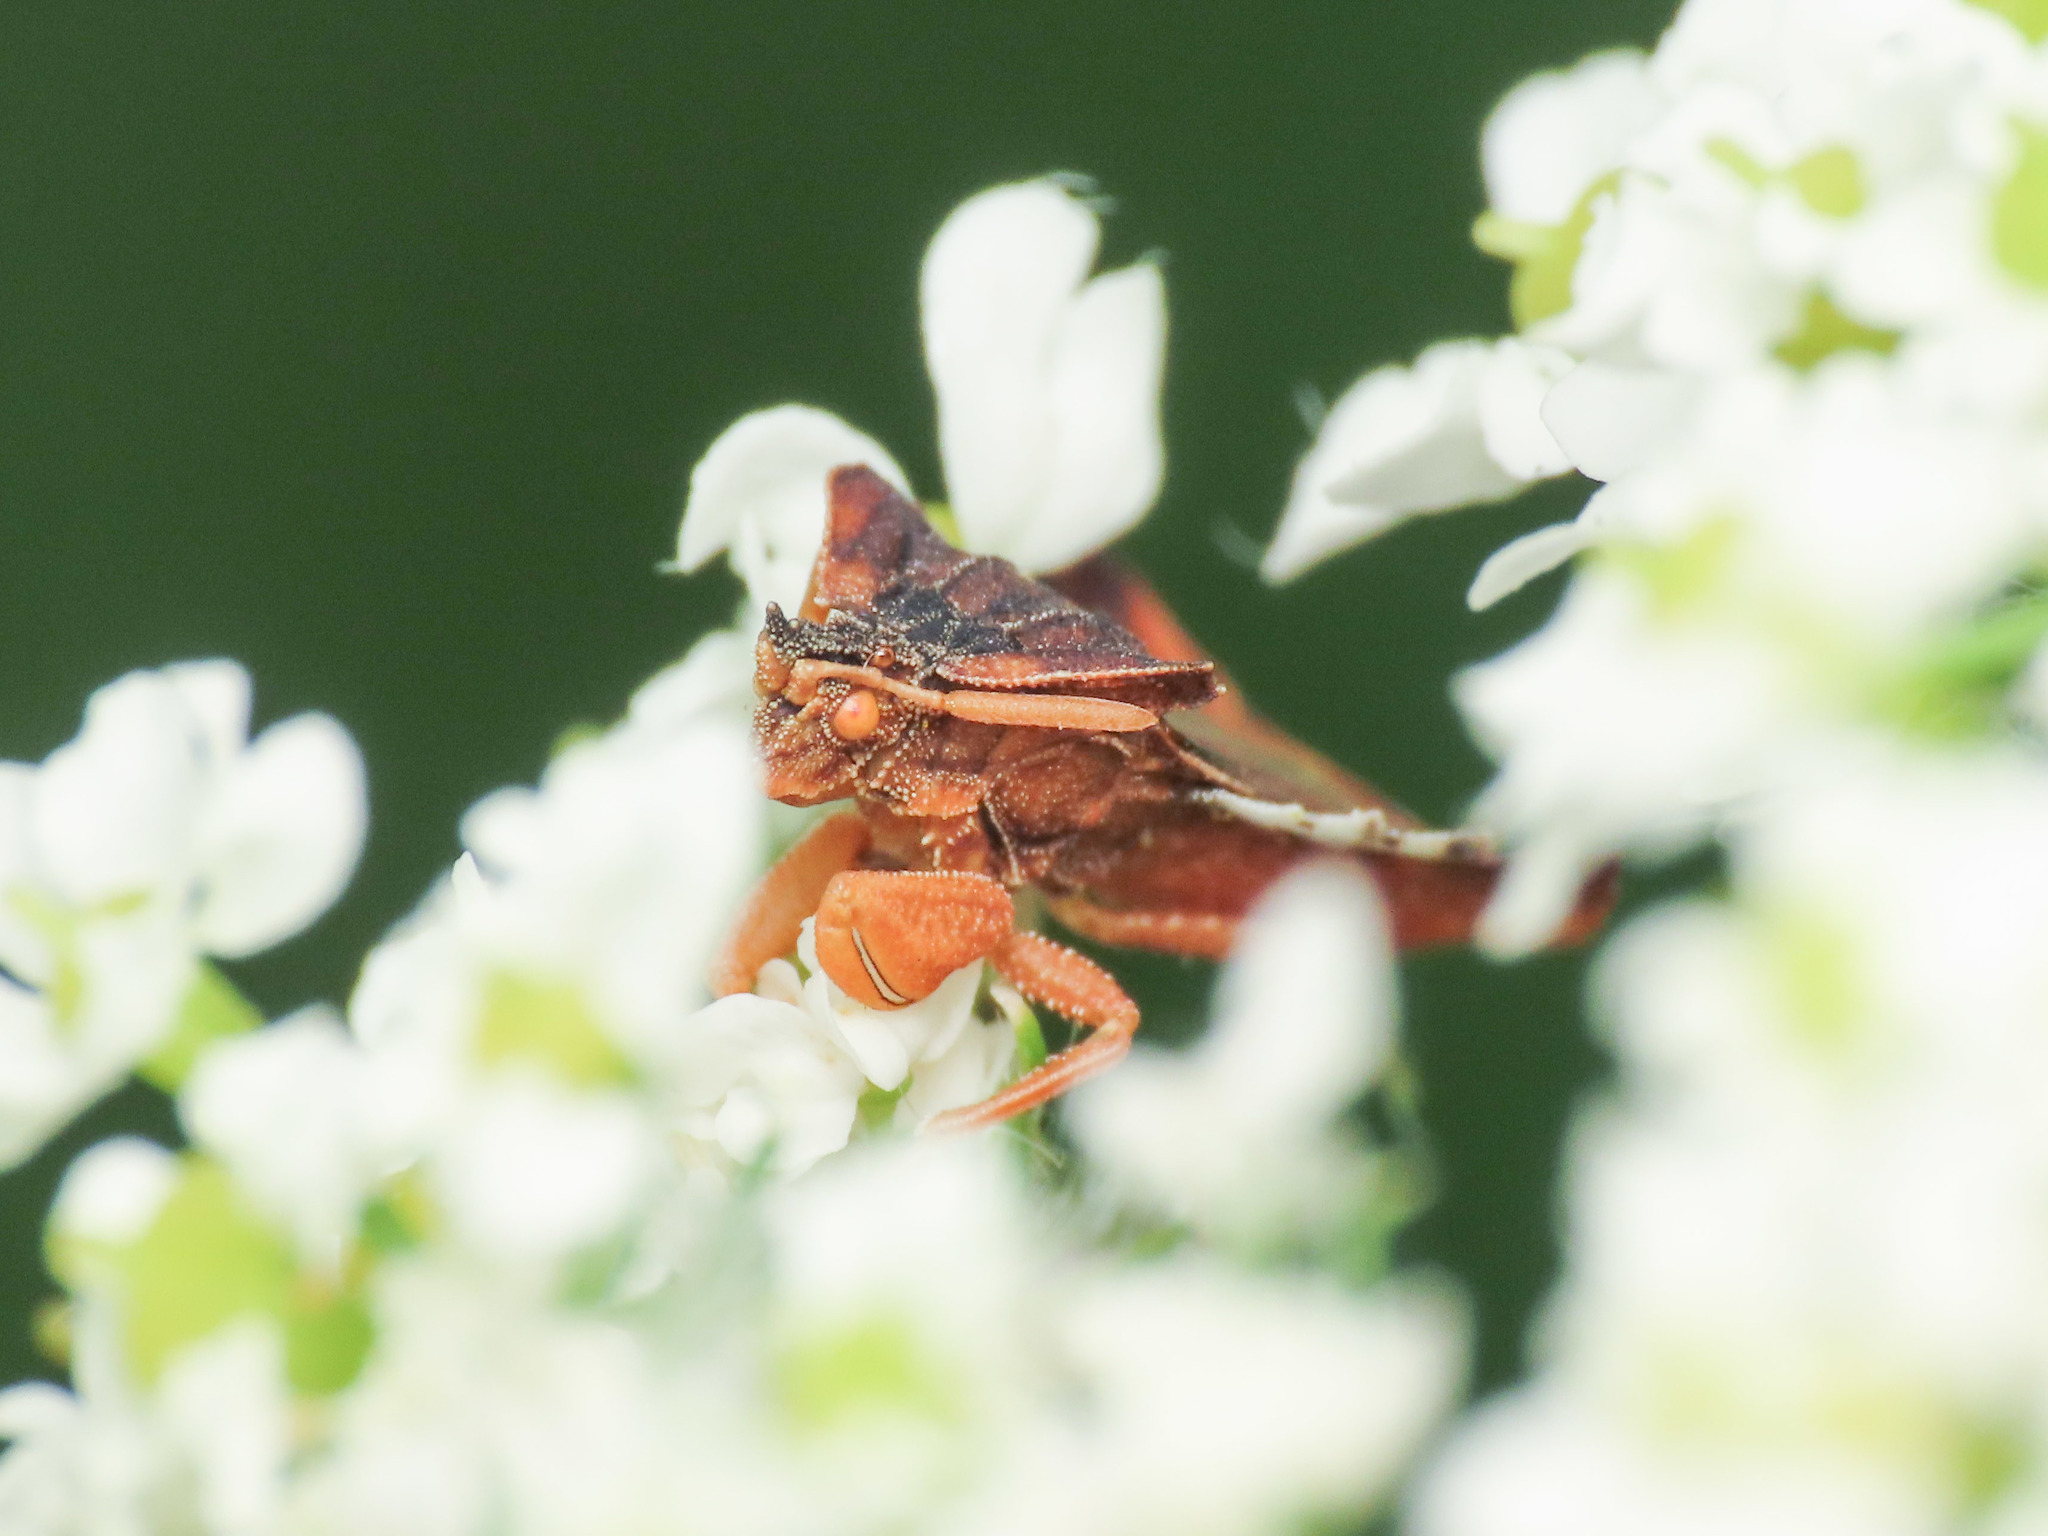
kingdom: Animalia
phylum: Arthropoda
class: Insecta
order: Hemiptera
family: Reduviidae
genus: Phymata
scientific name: Phymata crassipes
